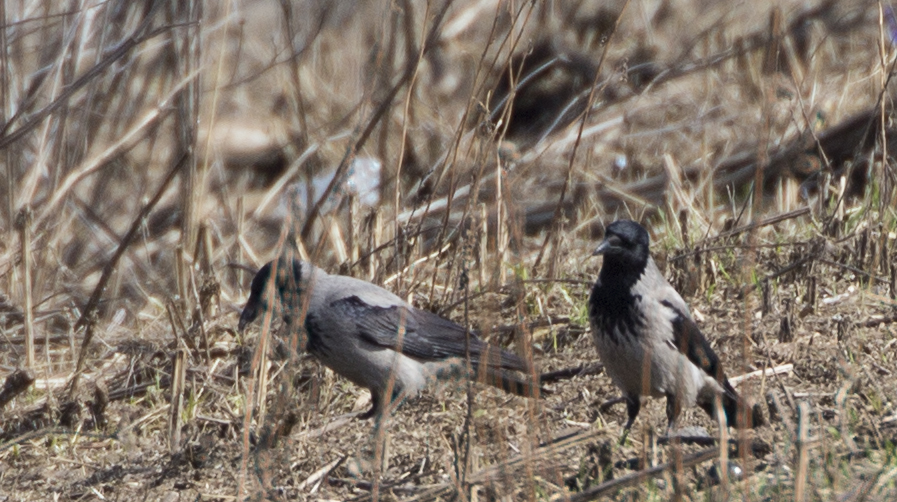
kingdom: Animalia
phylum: Chordata
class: Aves
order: Passeriformes
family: Corvidae
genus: Corvus
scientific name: Corvus cornix
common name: Hooded crow
